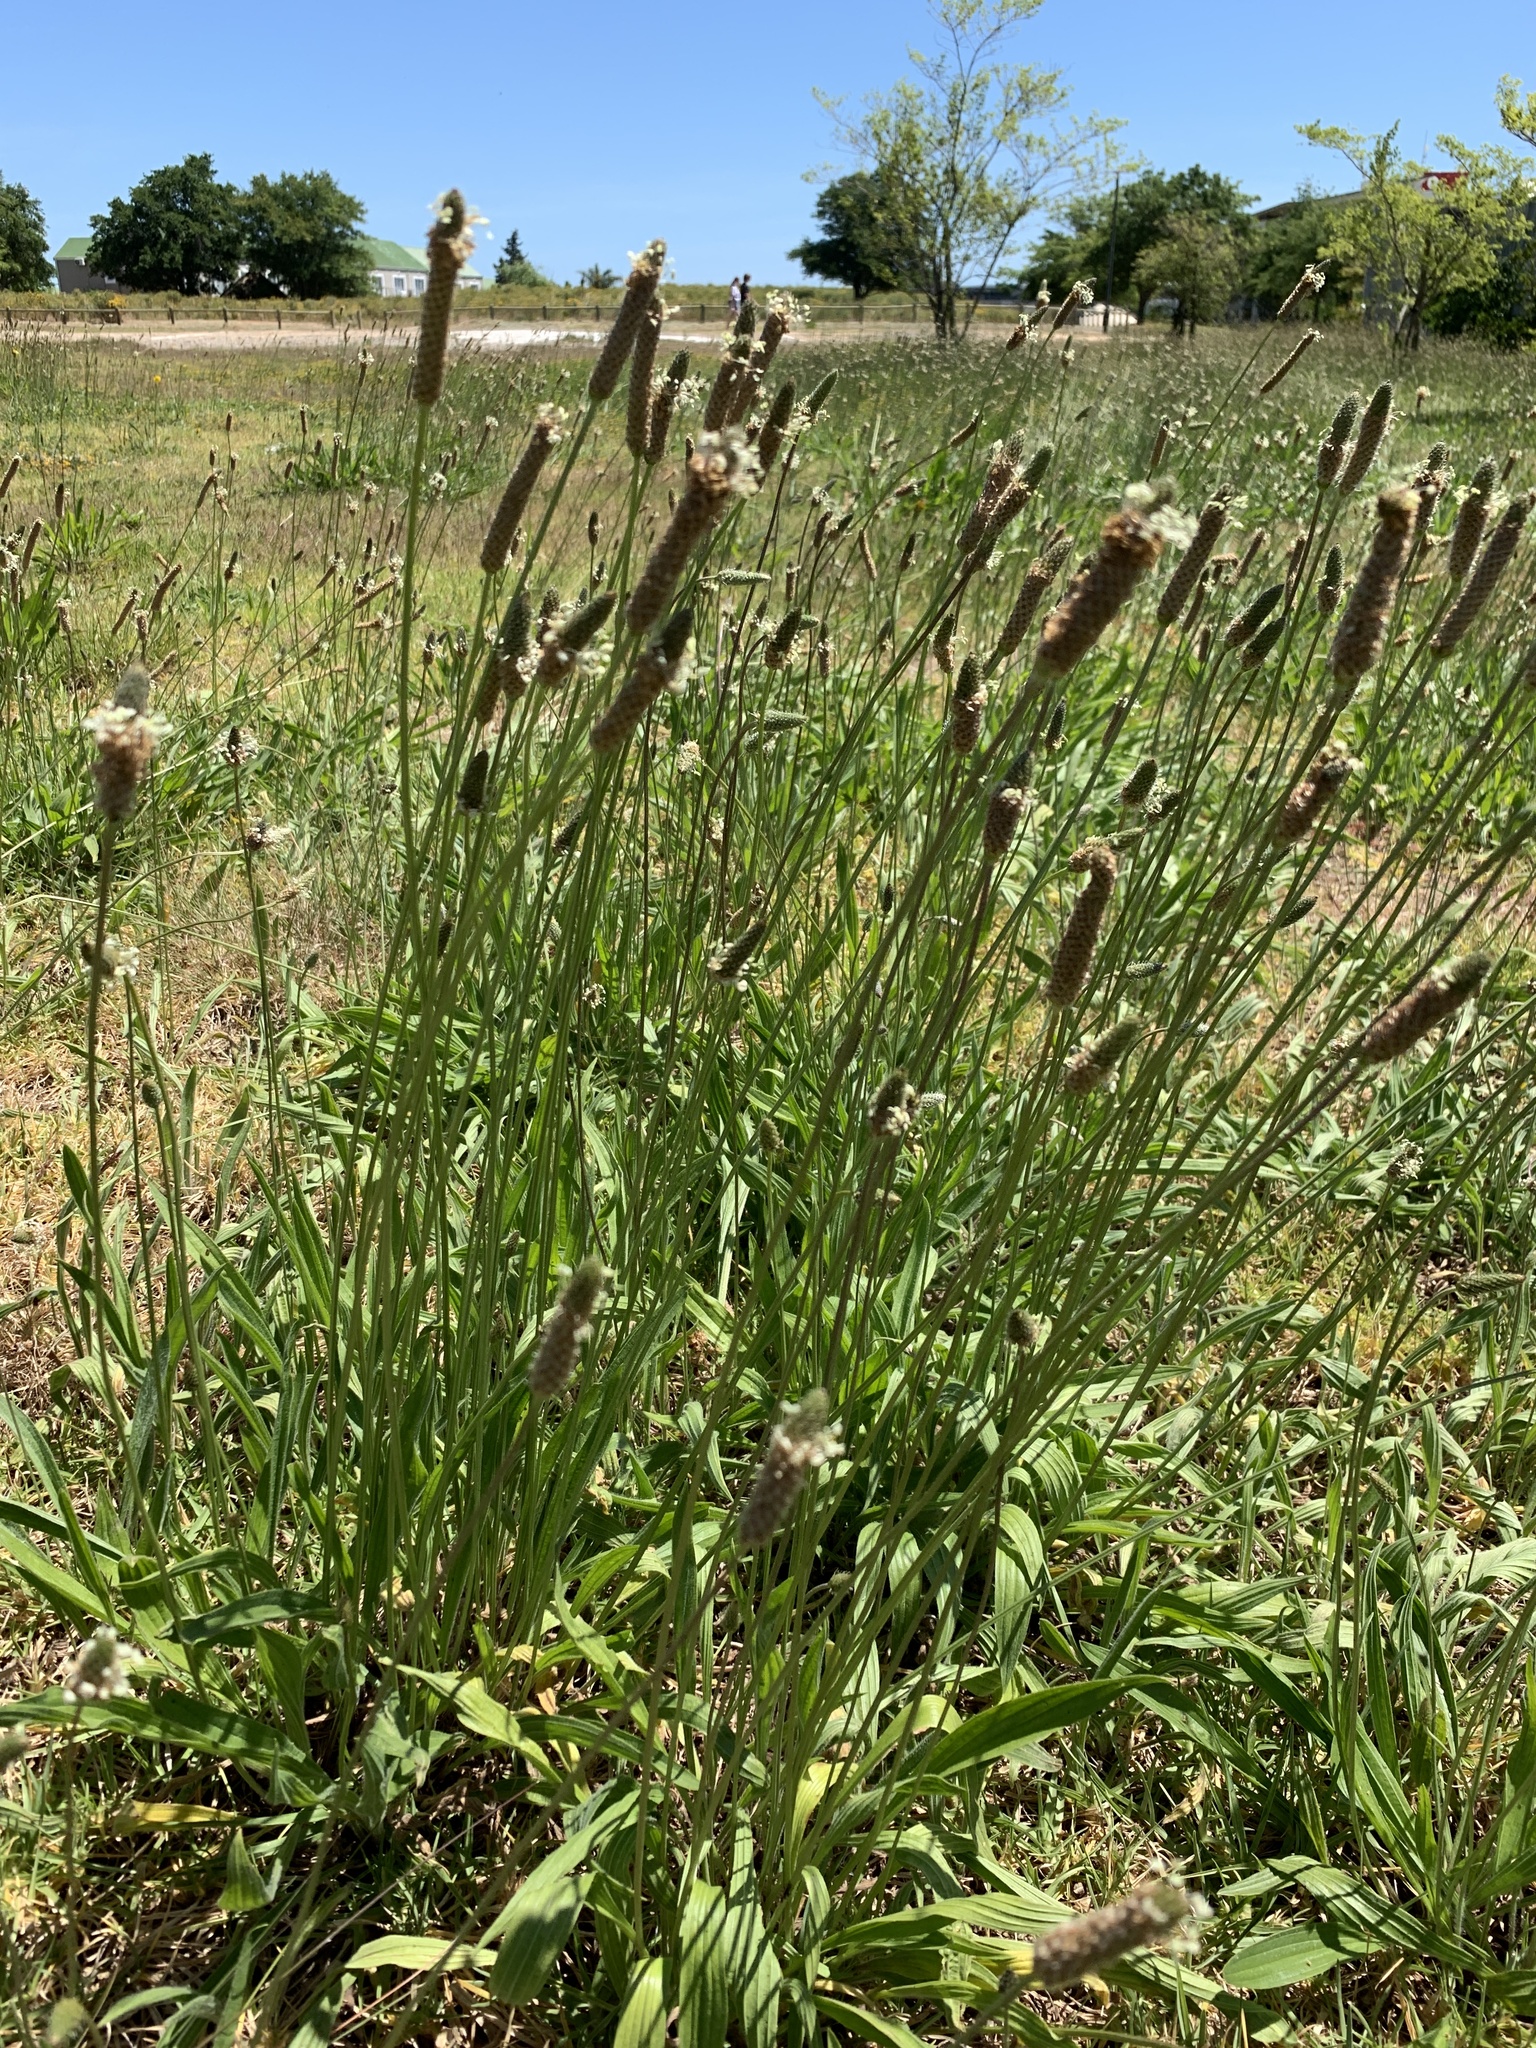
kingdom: Plantae
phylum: Tracheophyta
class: Magnoliopsida
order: Lamiales
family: Plantaginaceae
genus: Plantago
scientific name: Plantago lanceolata
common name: Ribwort plantain
